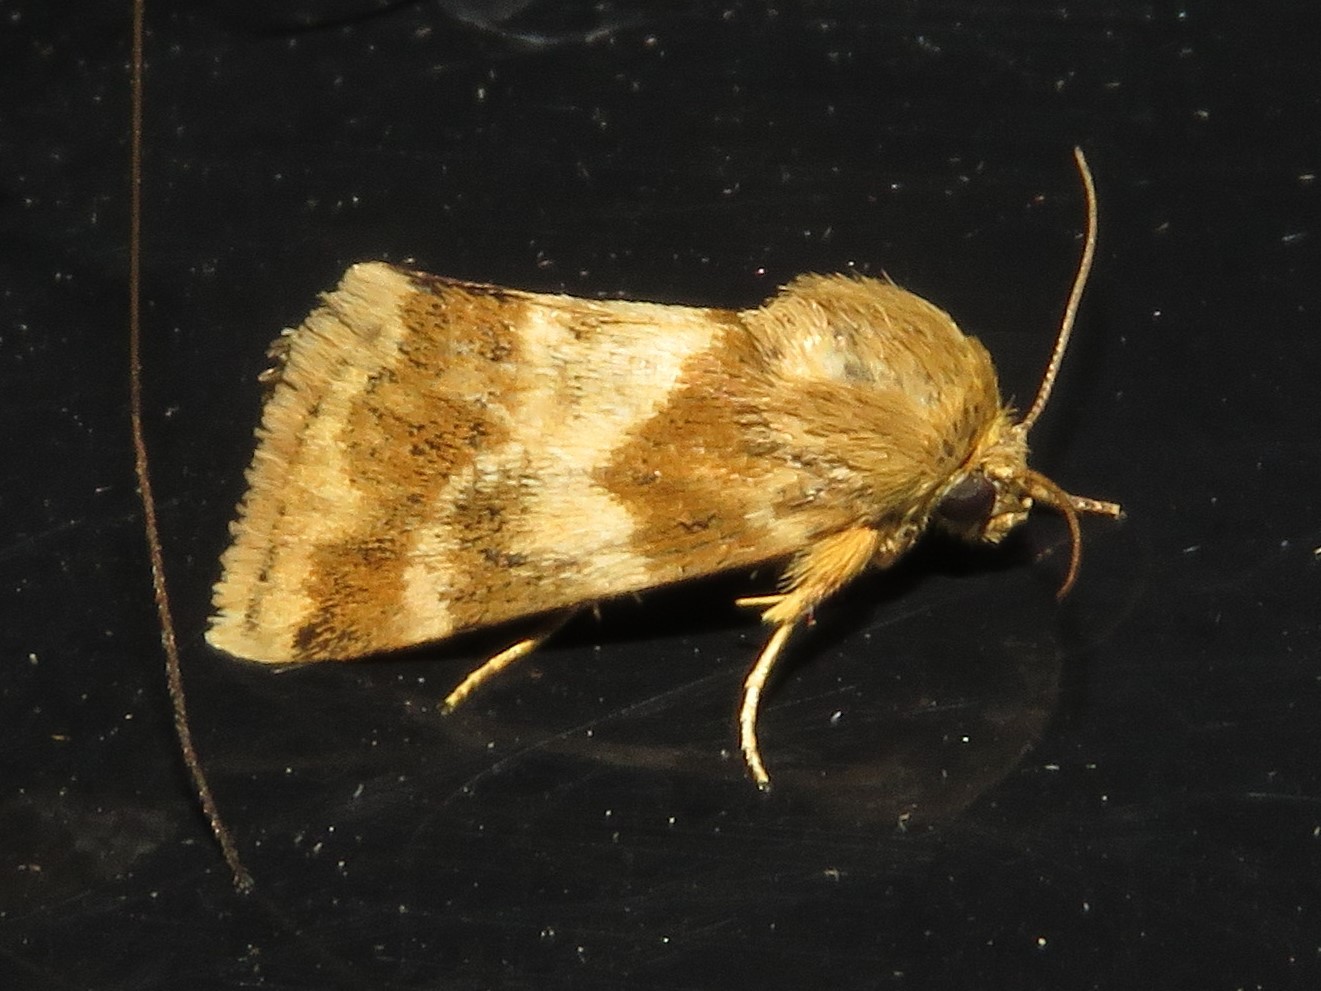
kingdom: Animalia
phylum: Arthropoda
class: Insecta
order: Lepidoptera
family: Noctuidae
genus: Schinia
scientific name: Schinia lynx
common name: Lynx flower moth
